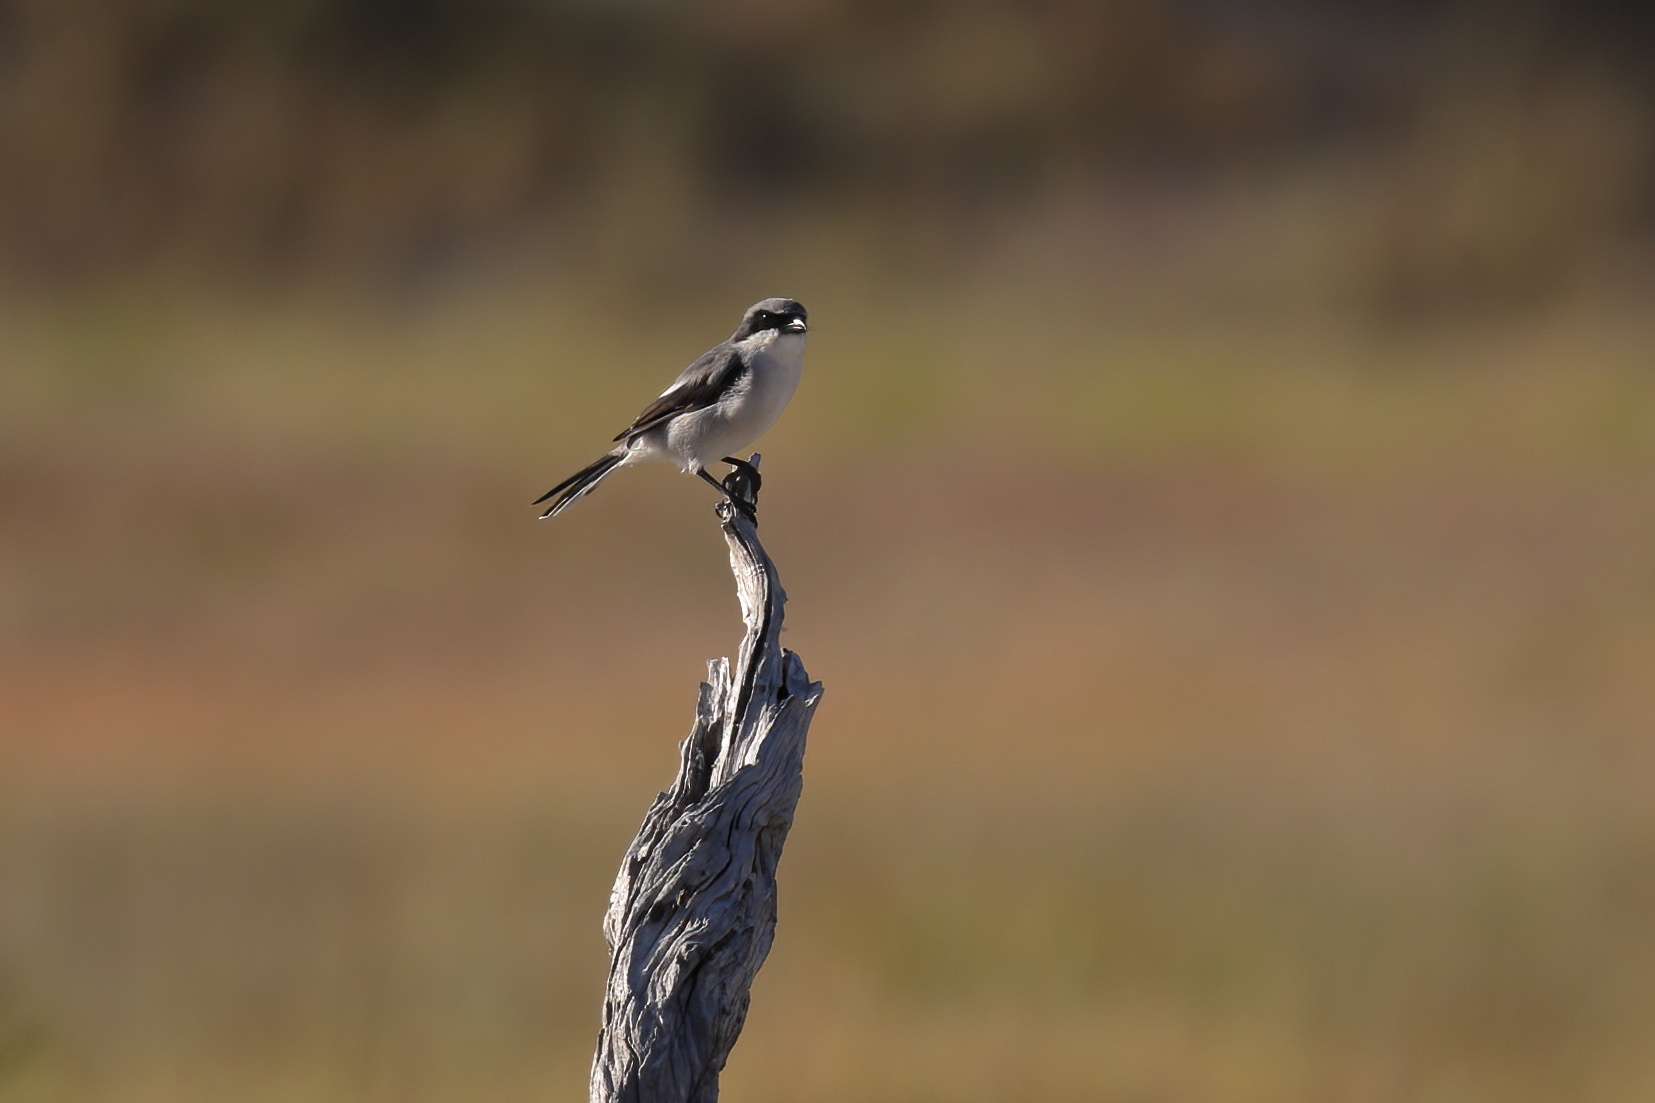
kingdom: Animalia
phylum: Chordata
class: Aves
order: Passeriformes
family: Laniidae
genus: Lanius
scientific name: Lanius ludovicianus
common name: Loggerhead shrike
